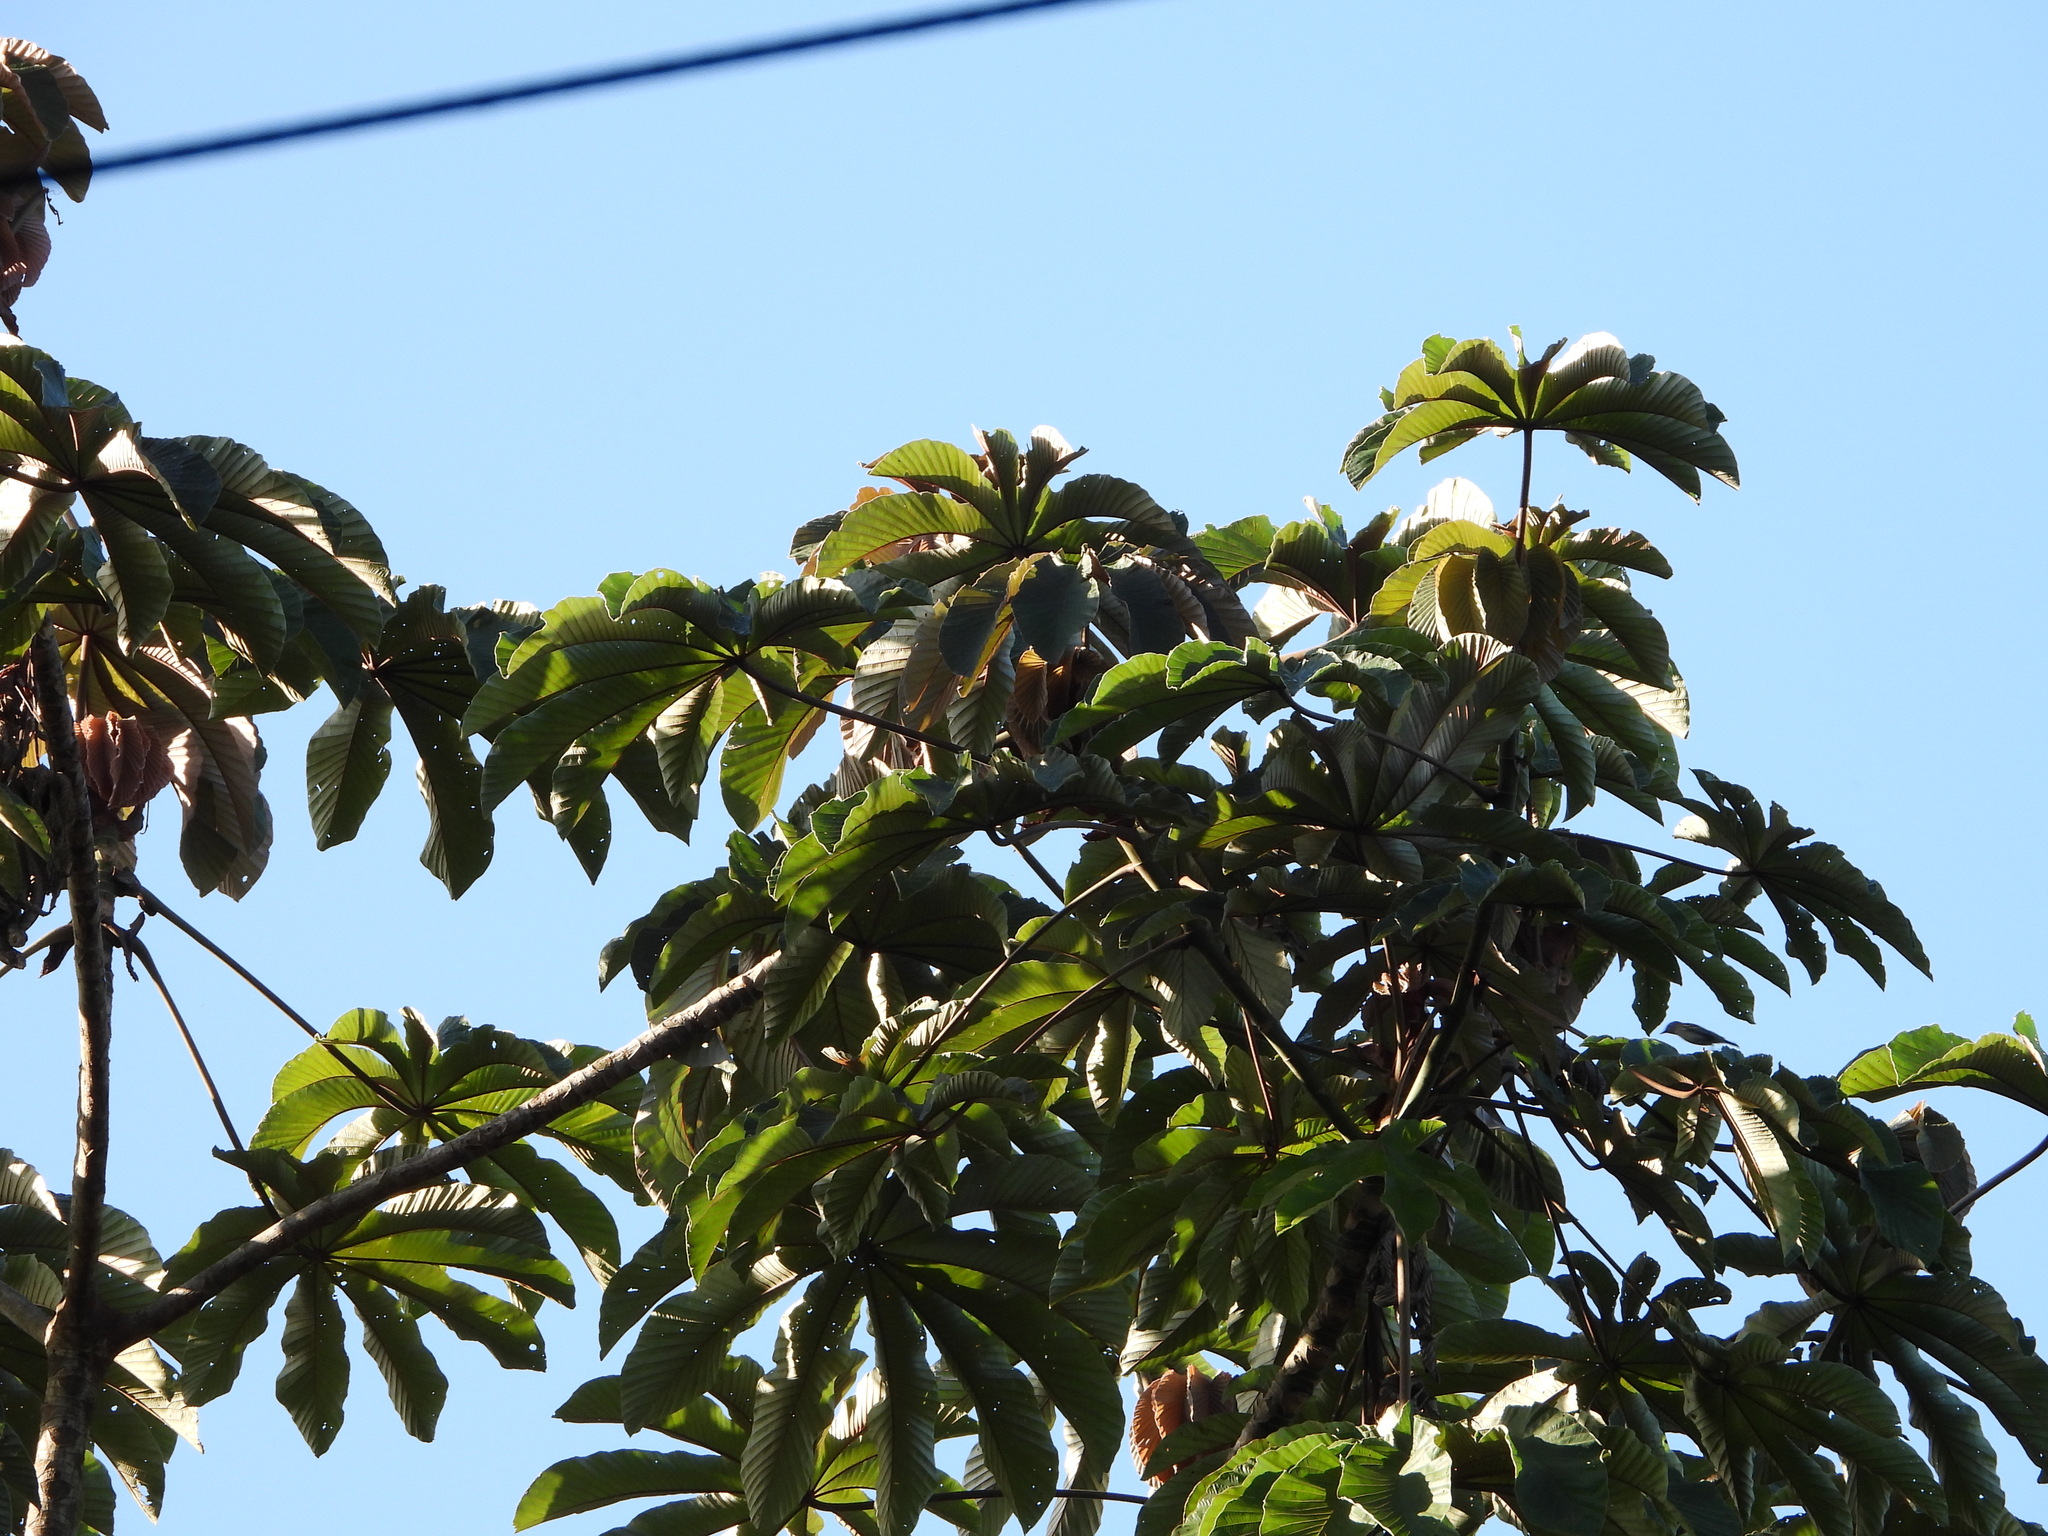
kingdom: Plantae
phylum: Tracheophyta
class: Magnoliopsida
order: Rosales
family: Urticaceae
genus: Cecropia
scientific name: Cecropia obtusifolia
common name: Trumpet tree
